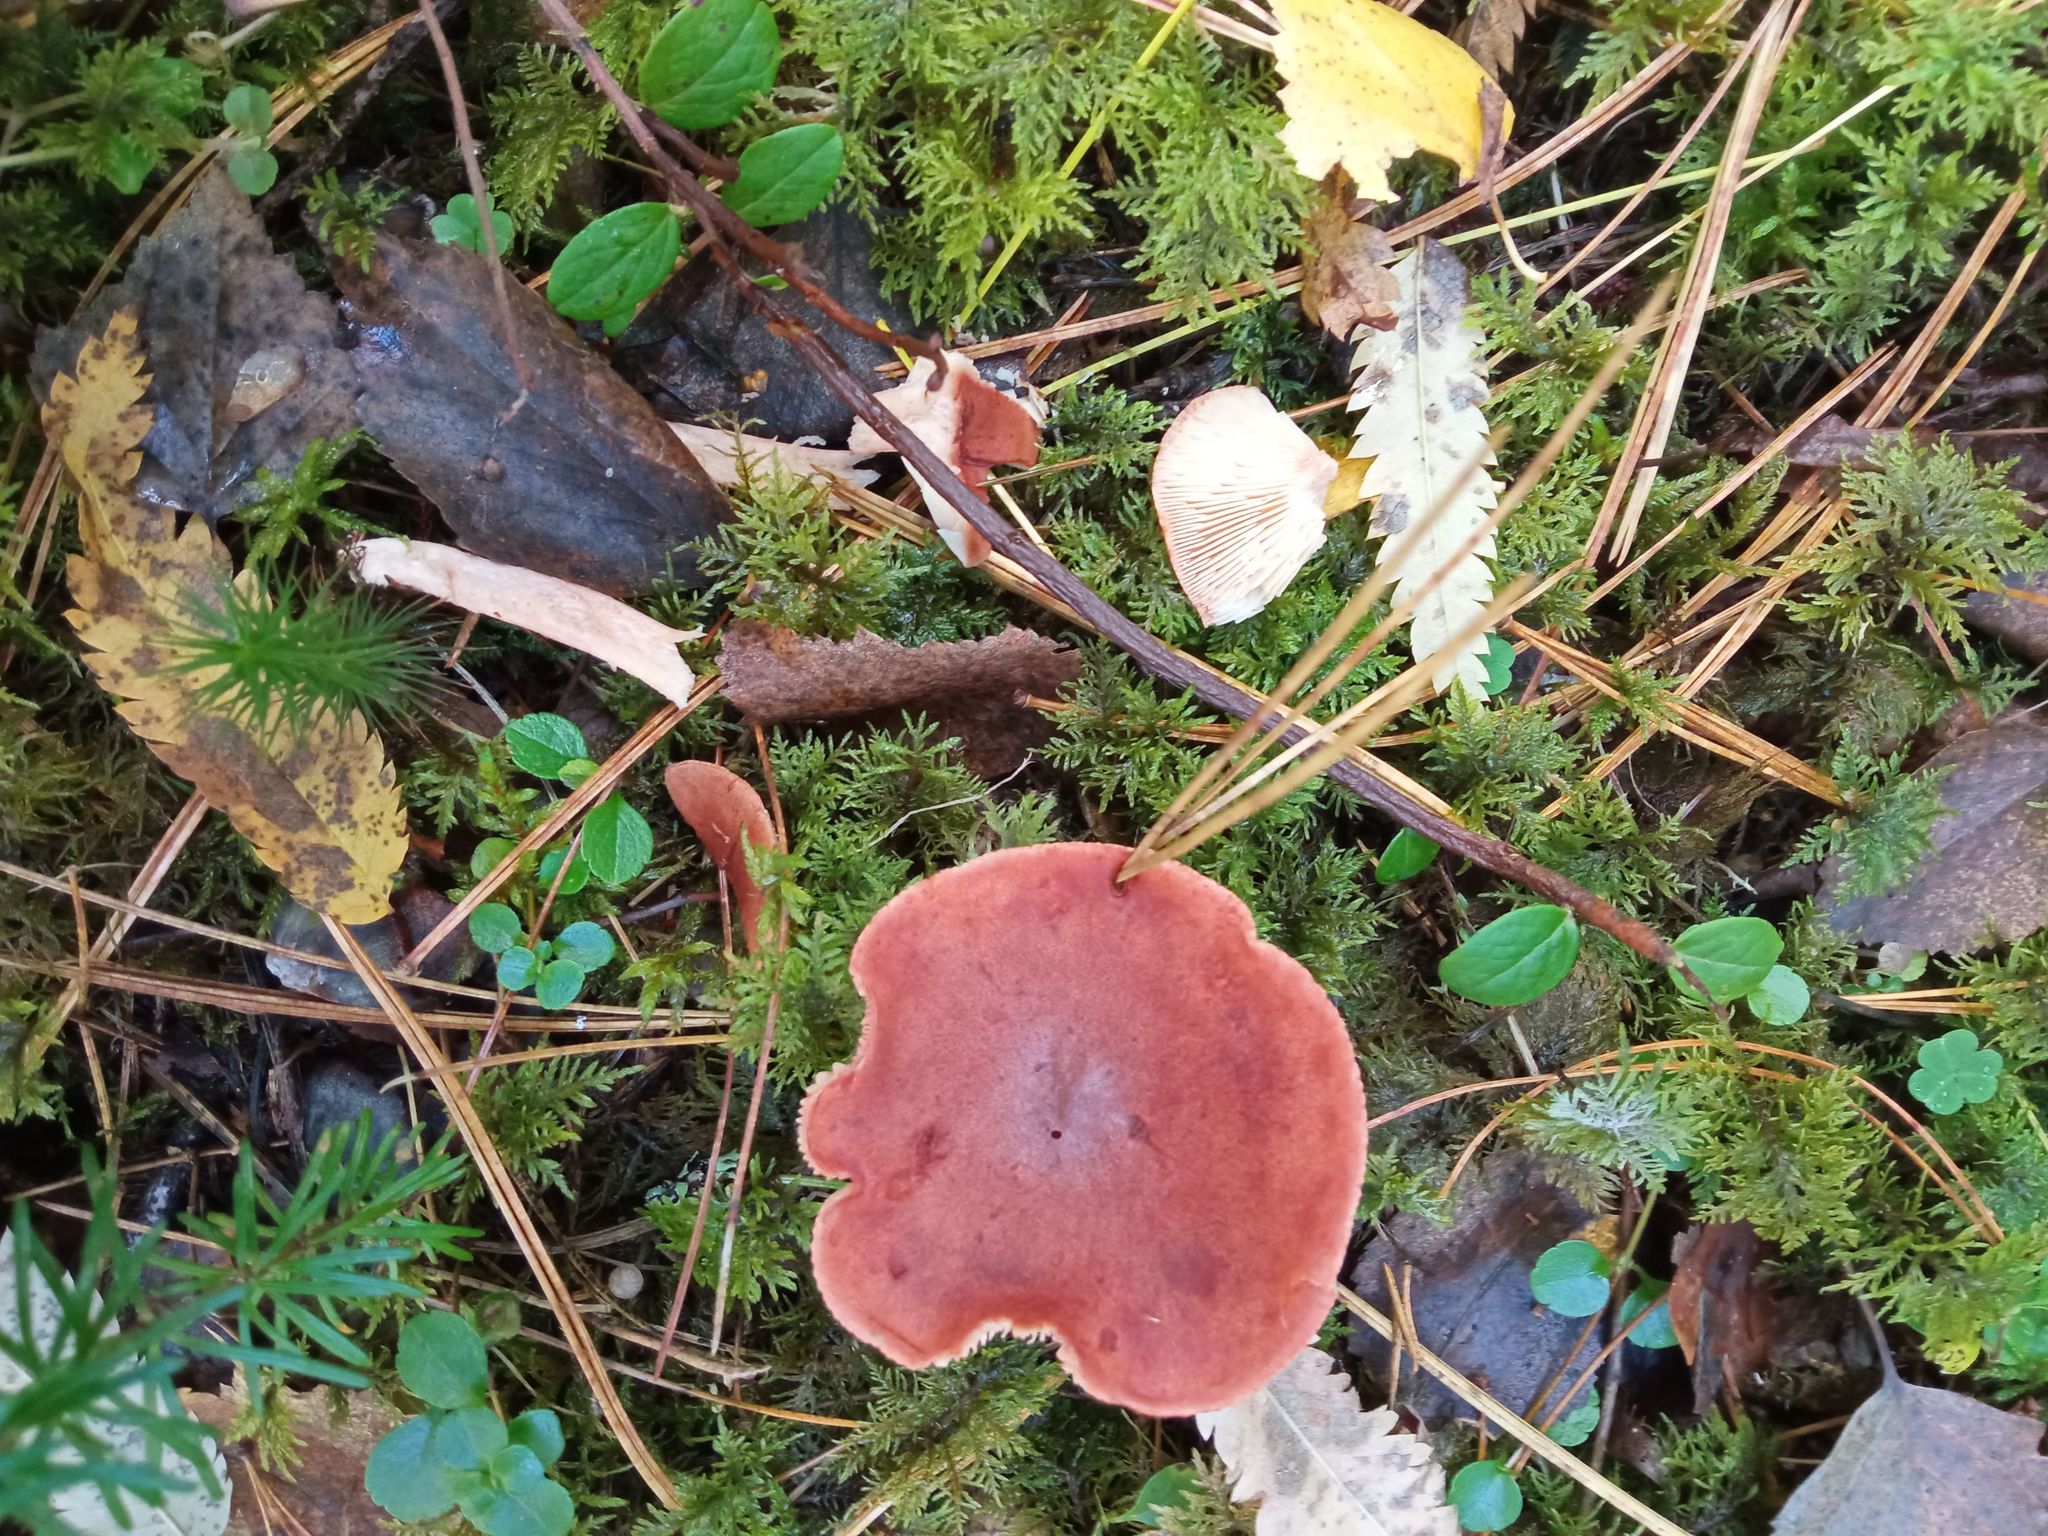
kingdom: Fungi
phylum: Basidiomycota
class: Agaricomycetes
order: Russulales
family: Russulaceae
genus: Lactarius
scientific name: Lactarius rufus
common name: Rufous milk-cap
